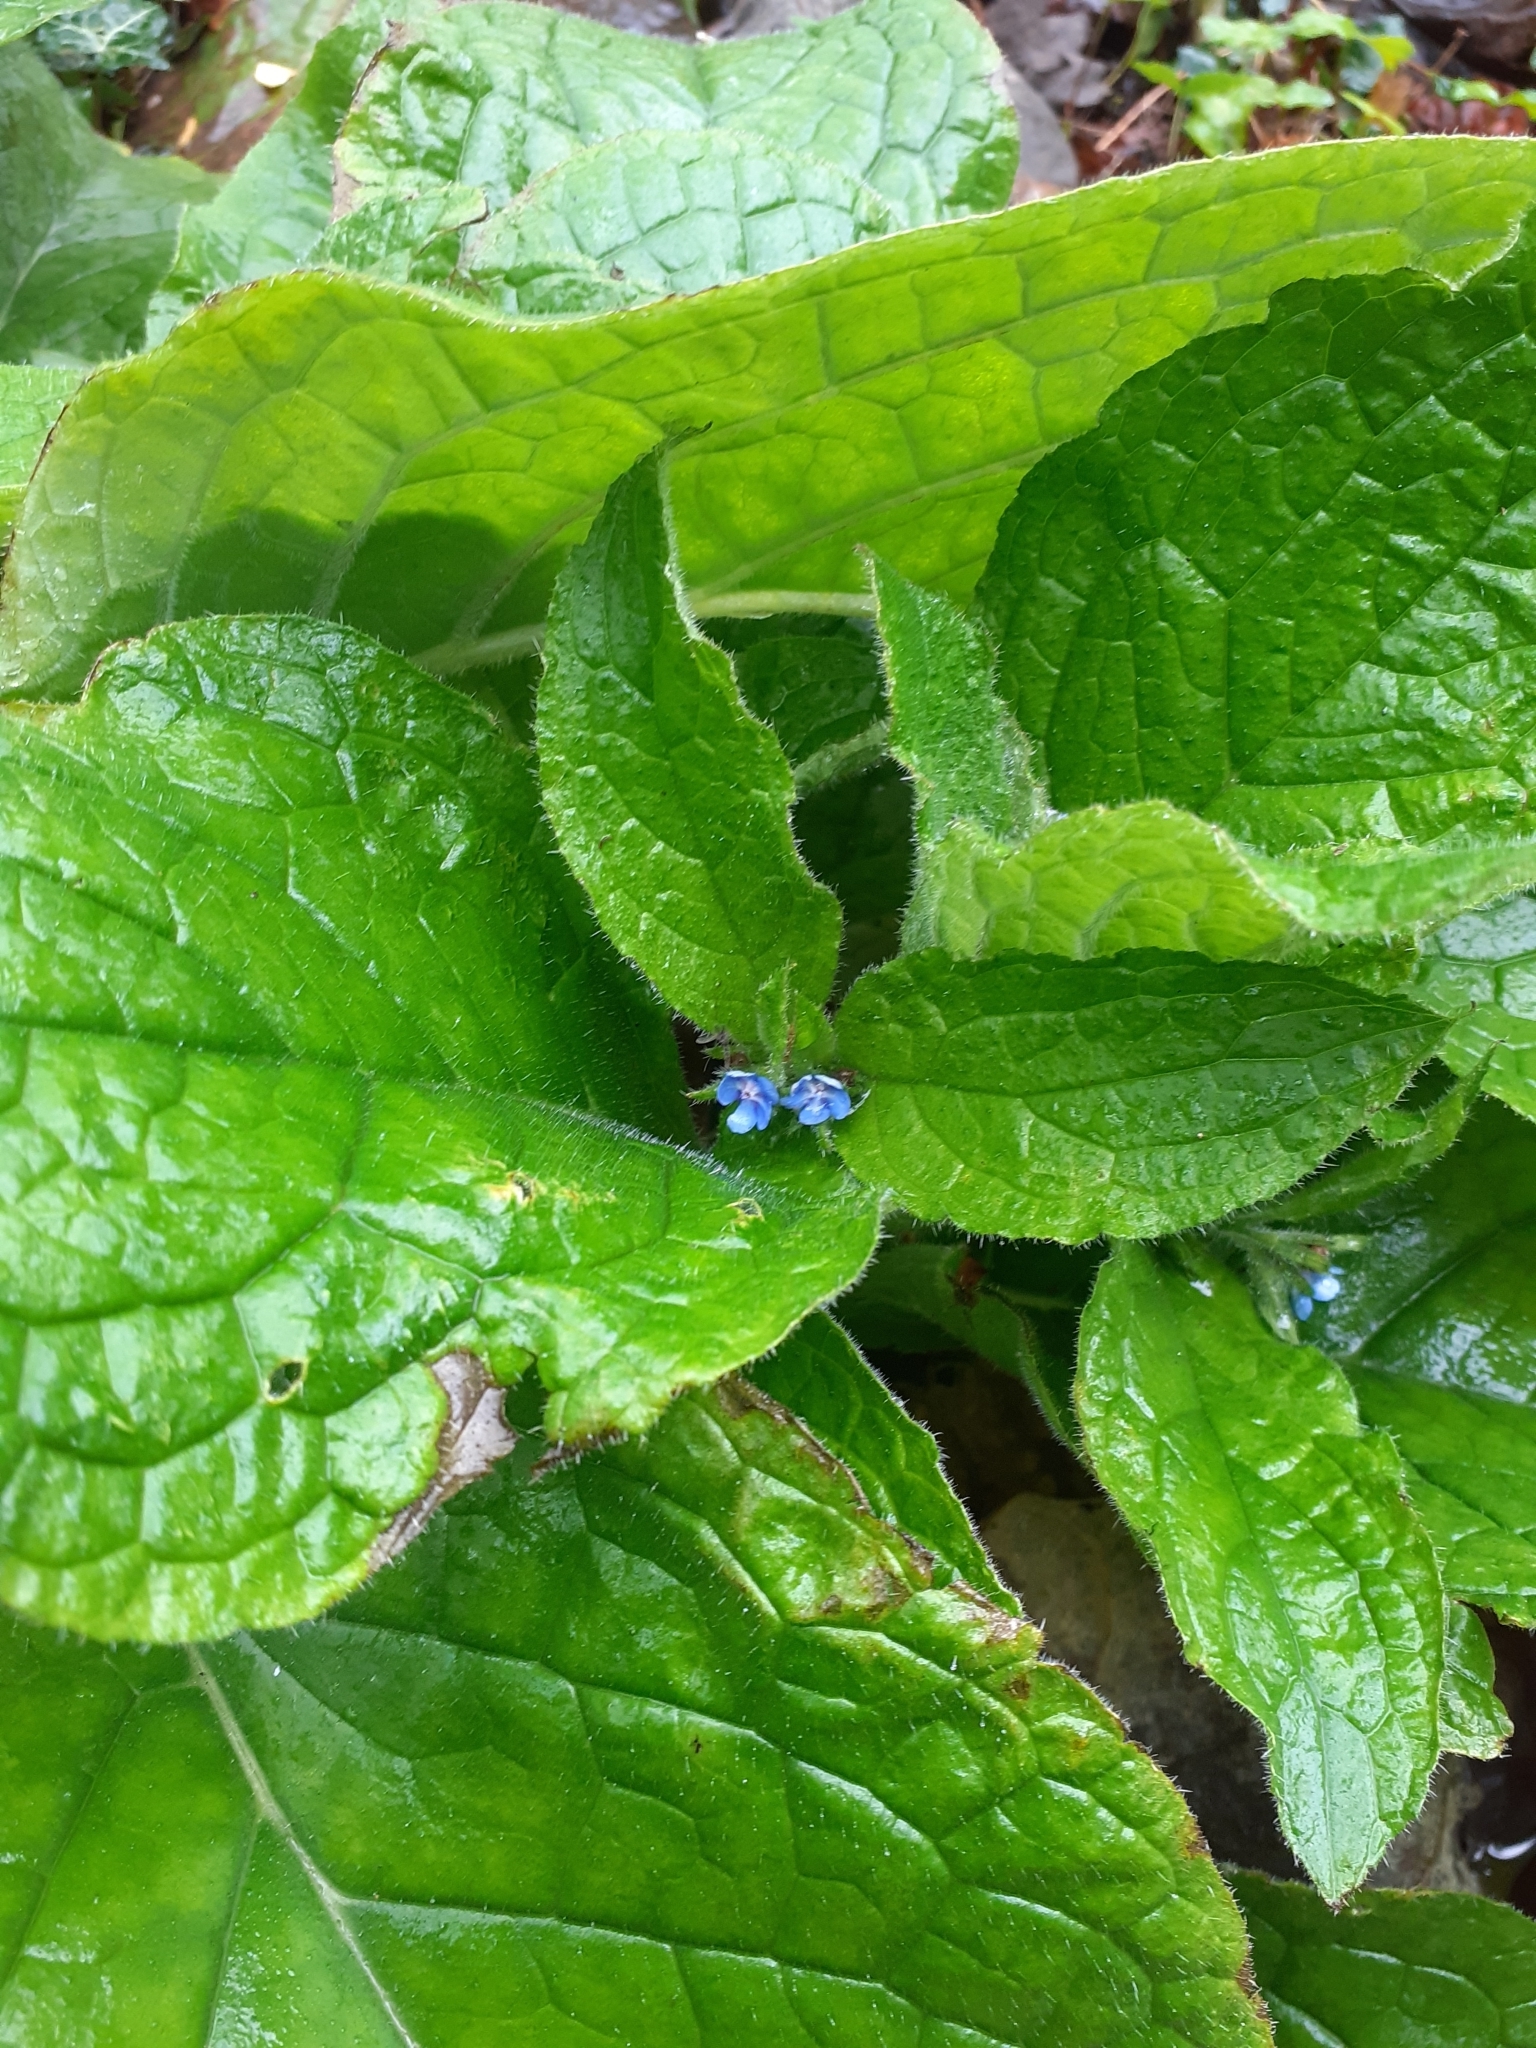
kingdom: Plantae
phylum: Tracheophyta
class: Magnoliopsida
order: Boraginales
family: Boraginaceae
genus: Pentaglottis
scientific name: Pentaglottis sempervirens
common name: Green alkanet
